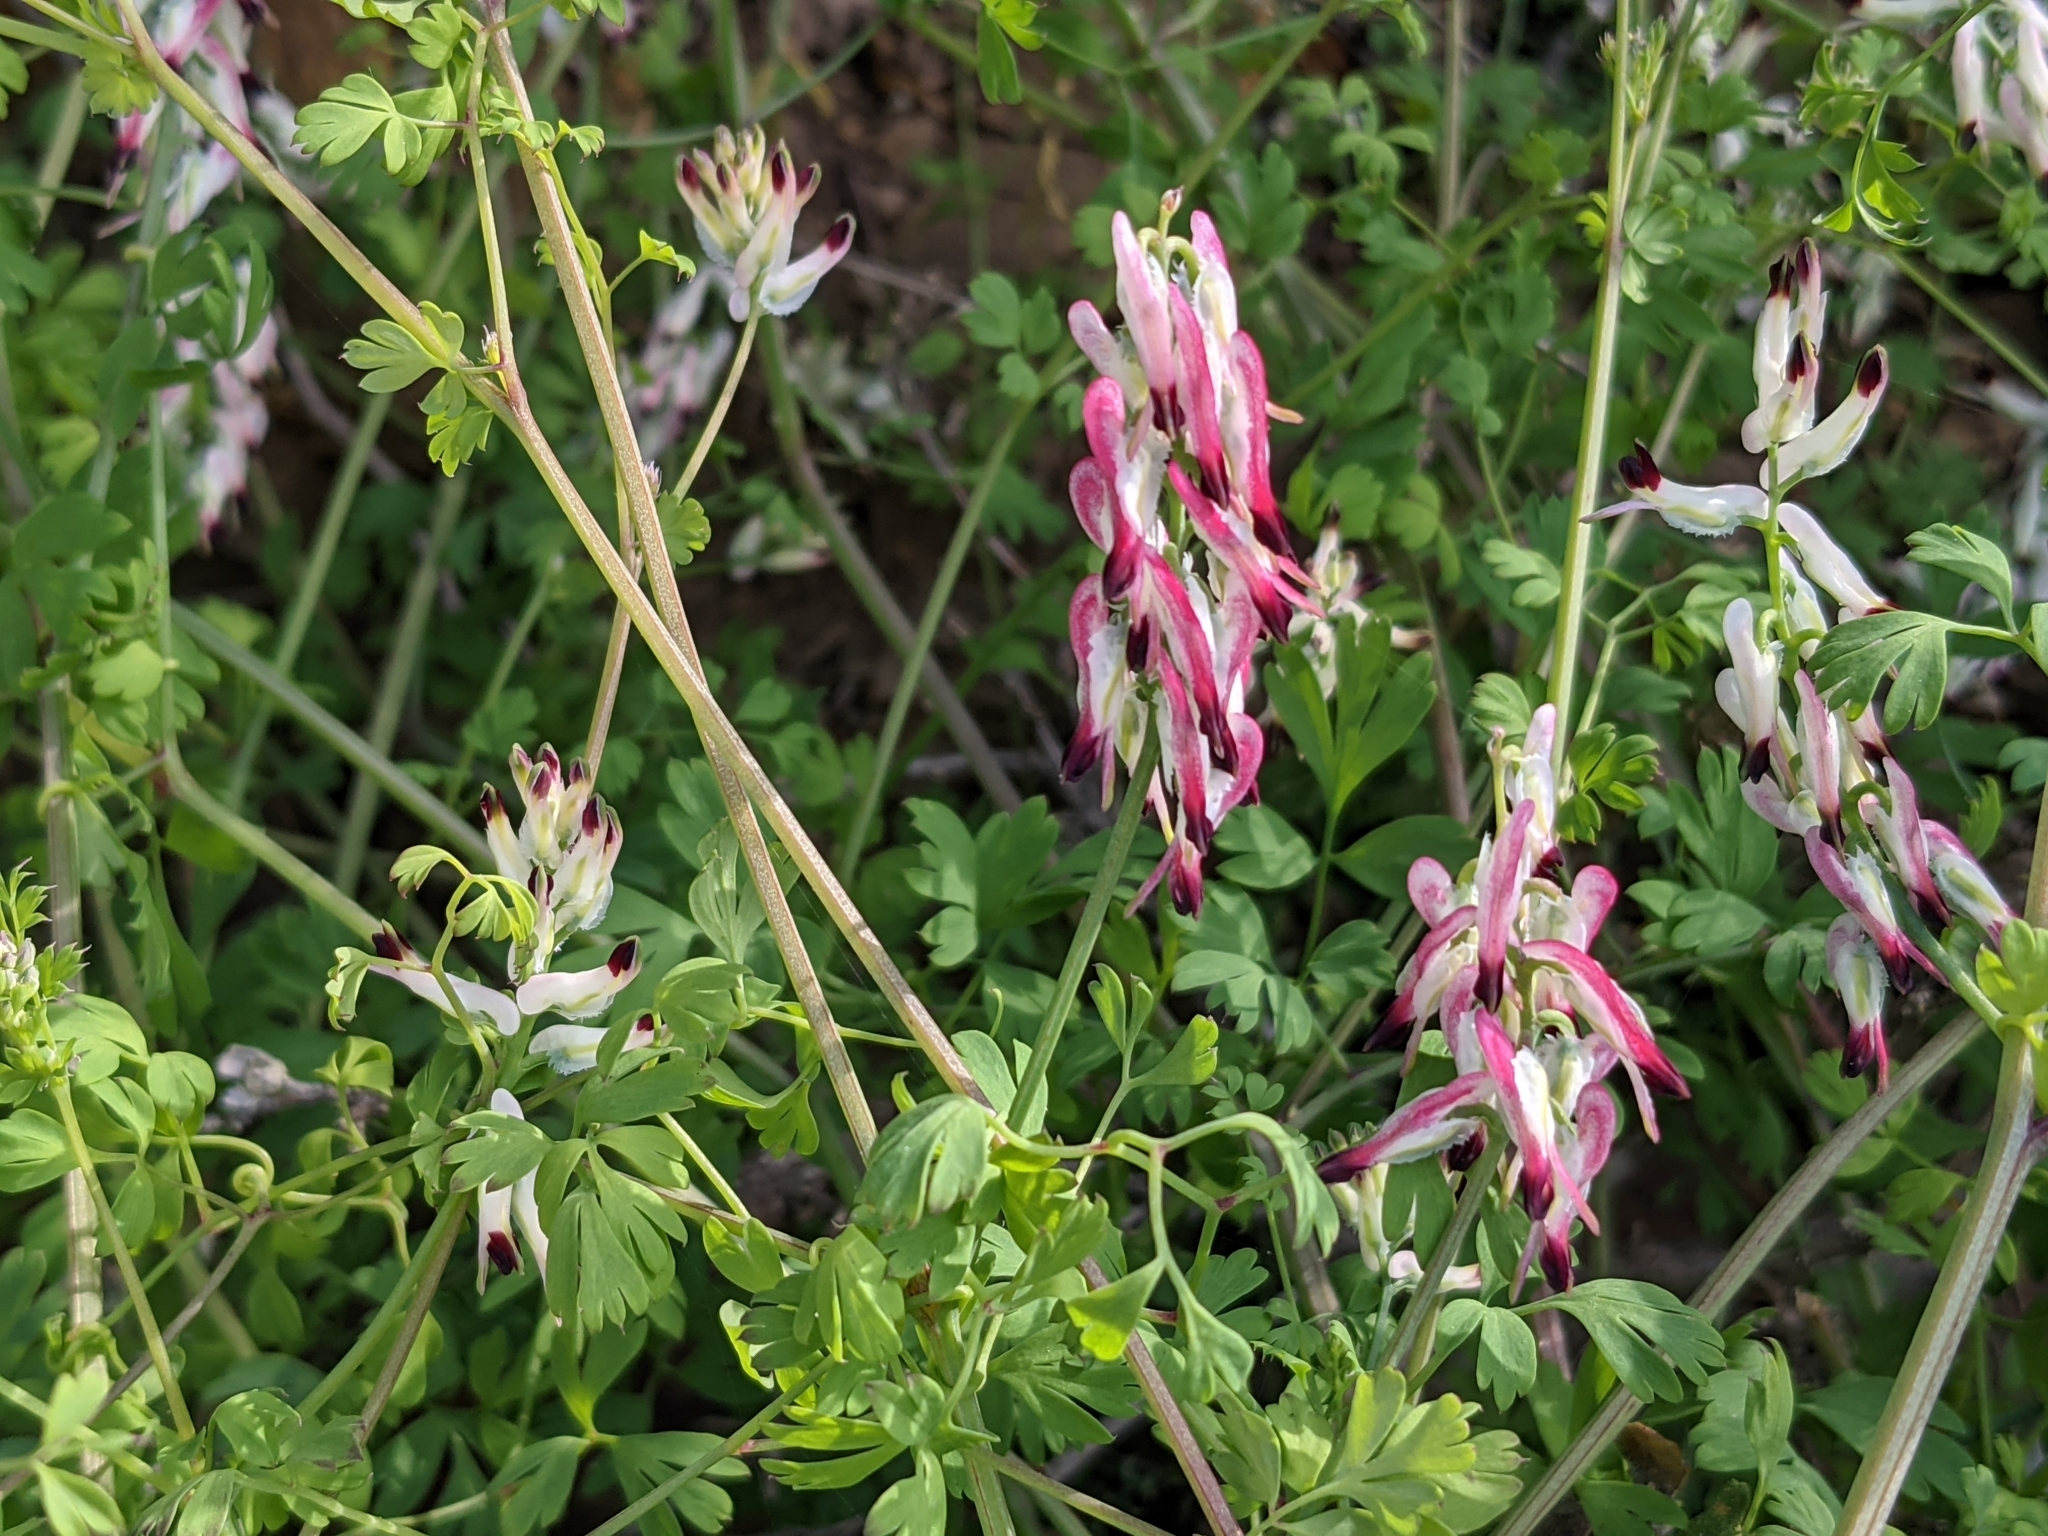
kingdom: Plantae
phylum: Tracheophyta
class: Magnoliopsida
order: Ranunculales
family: Papaveraceae
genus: Fumaria
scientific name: Fumaria capreolata
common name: White ramping-fumitory
